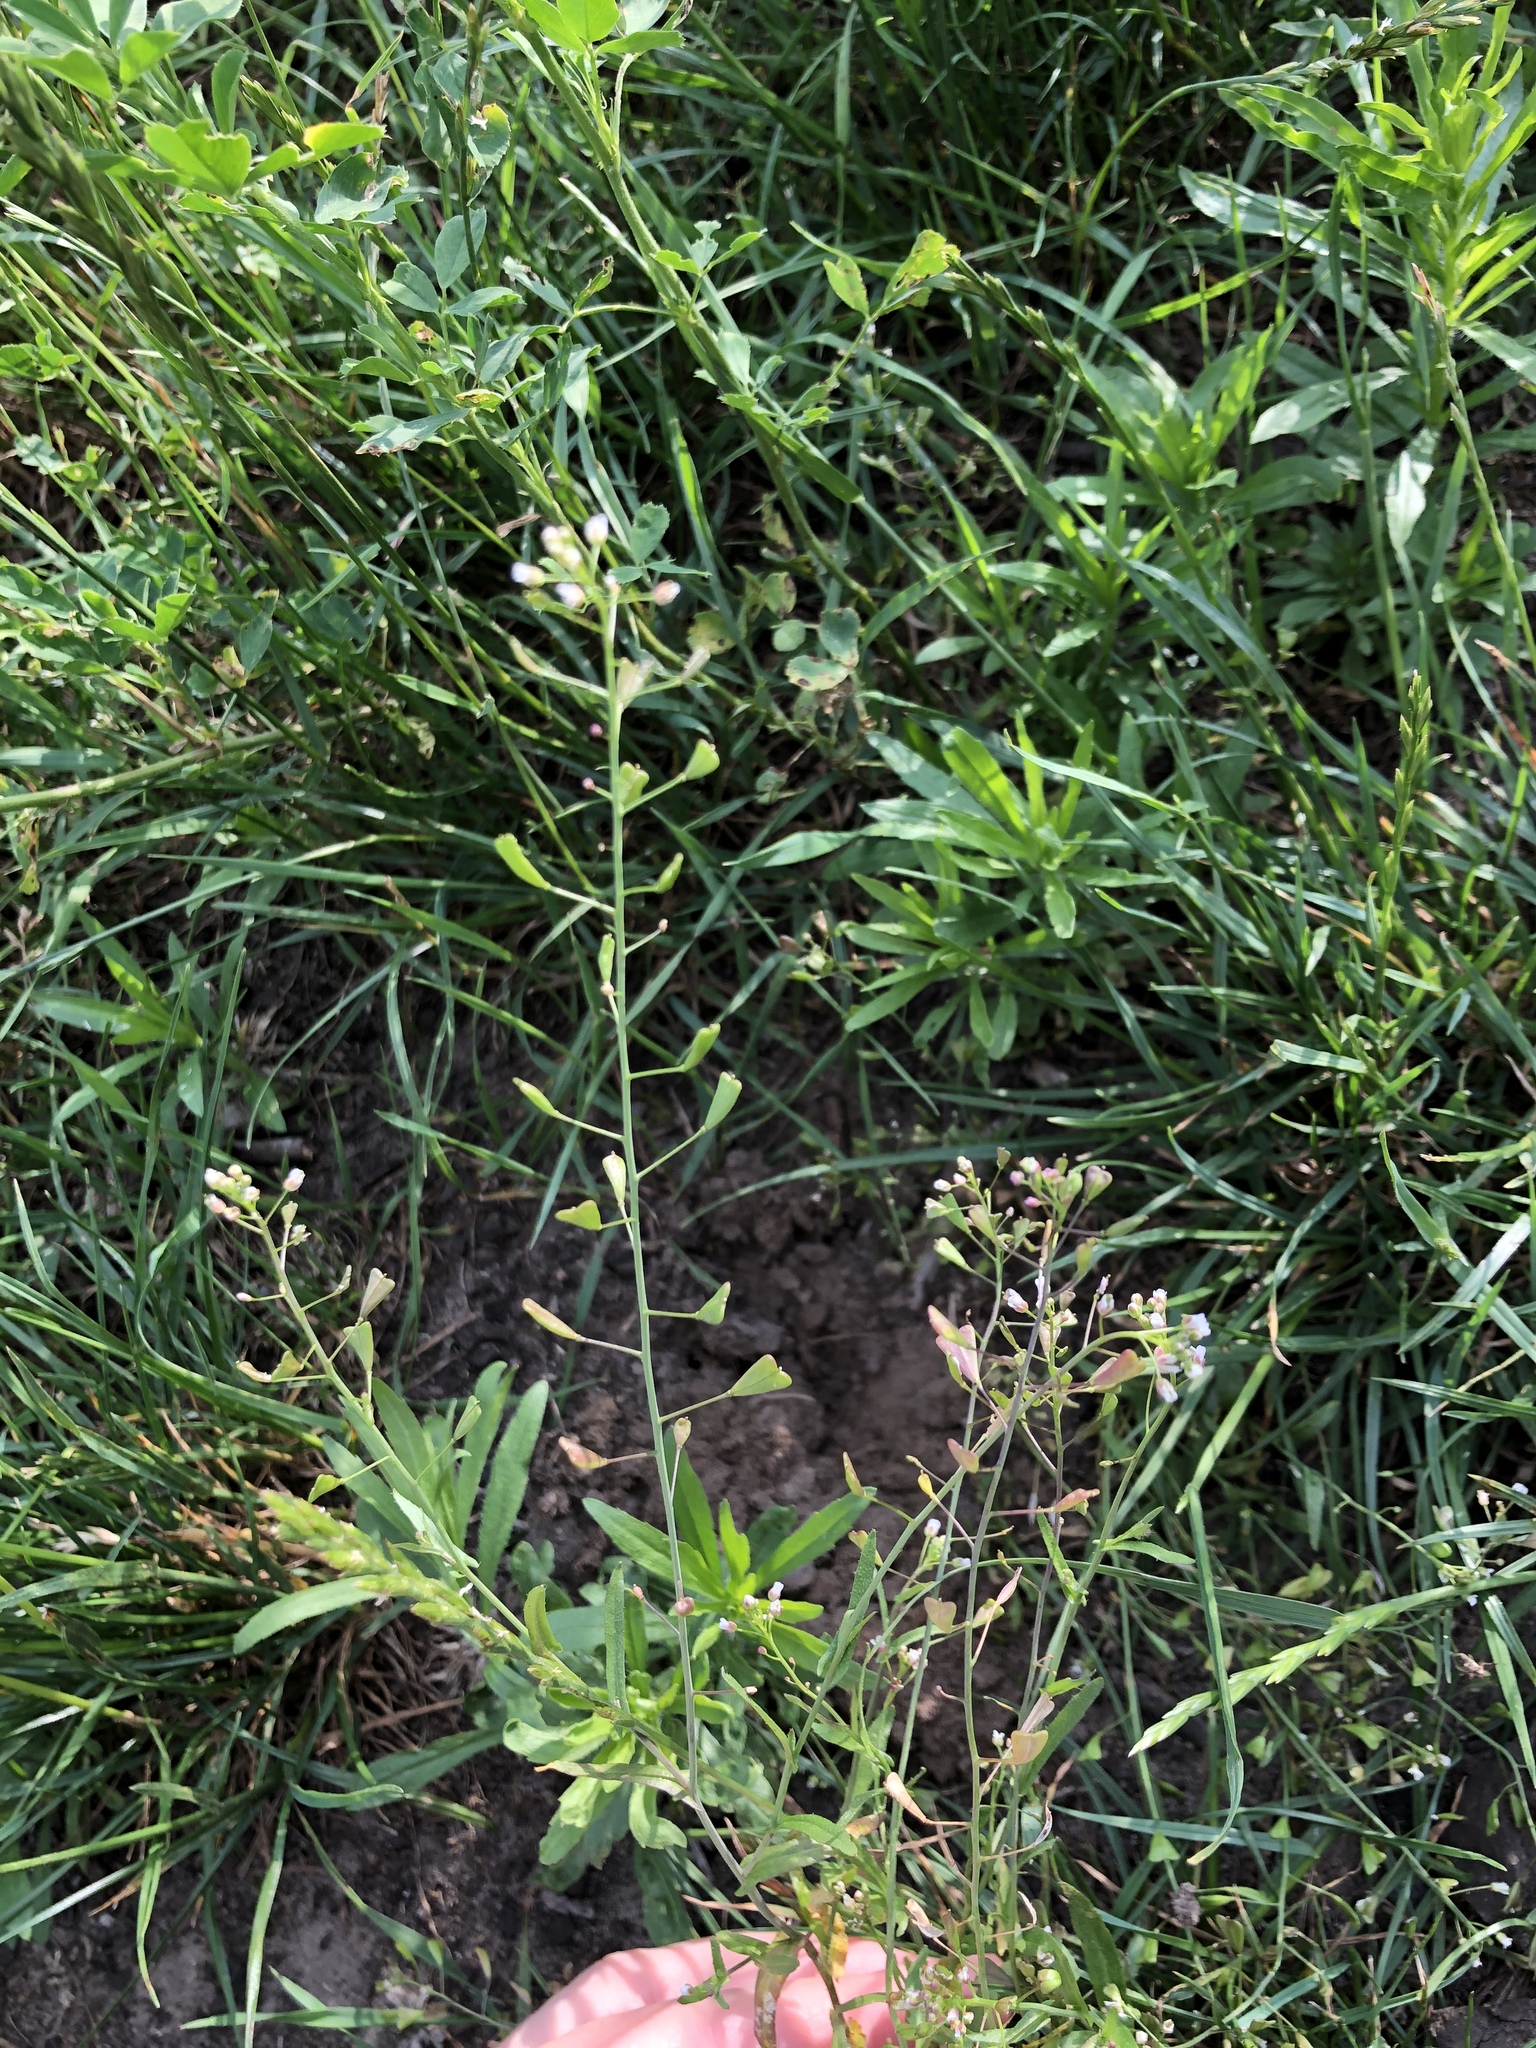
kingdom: Plantae
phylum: Tracheophyta
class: Magnoliopsida
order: Brassicales
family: Brassicaceae
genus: Capsella
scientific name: Capsella bursa-pastoris
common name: Shepherd's purse
